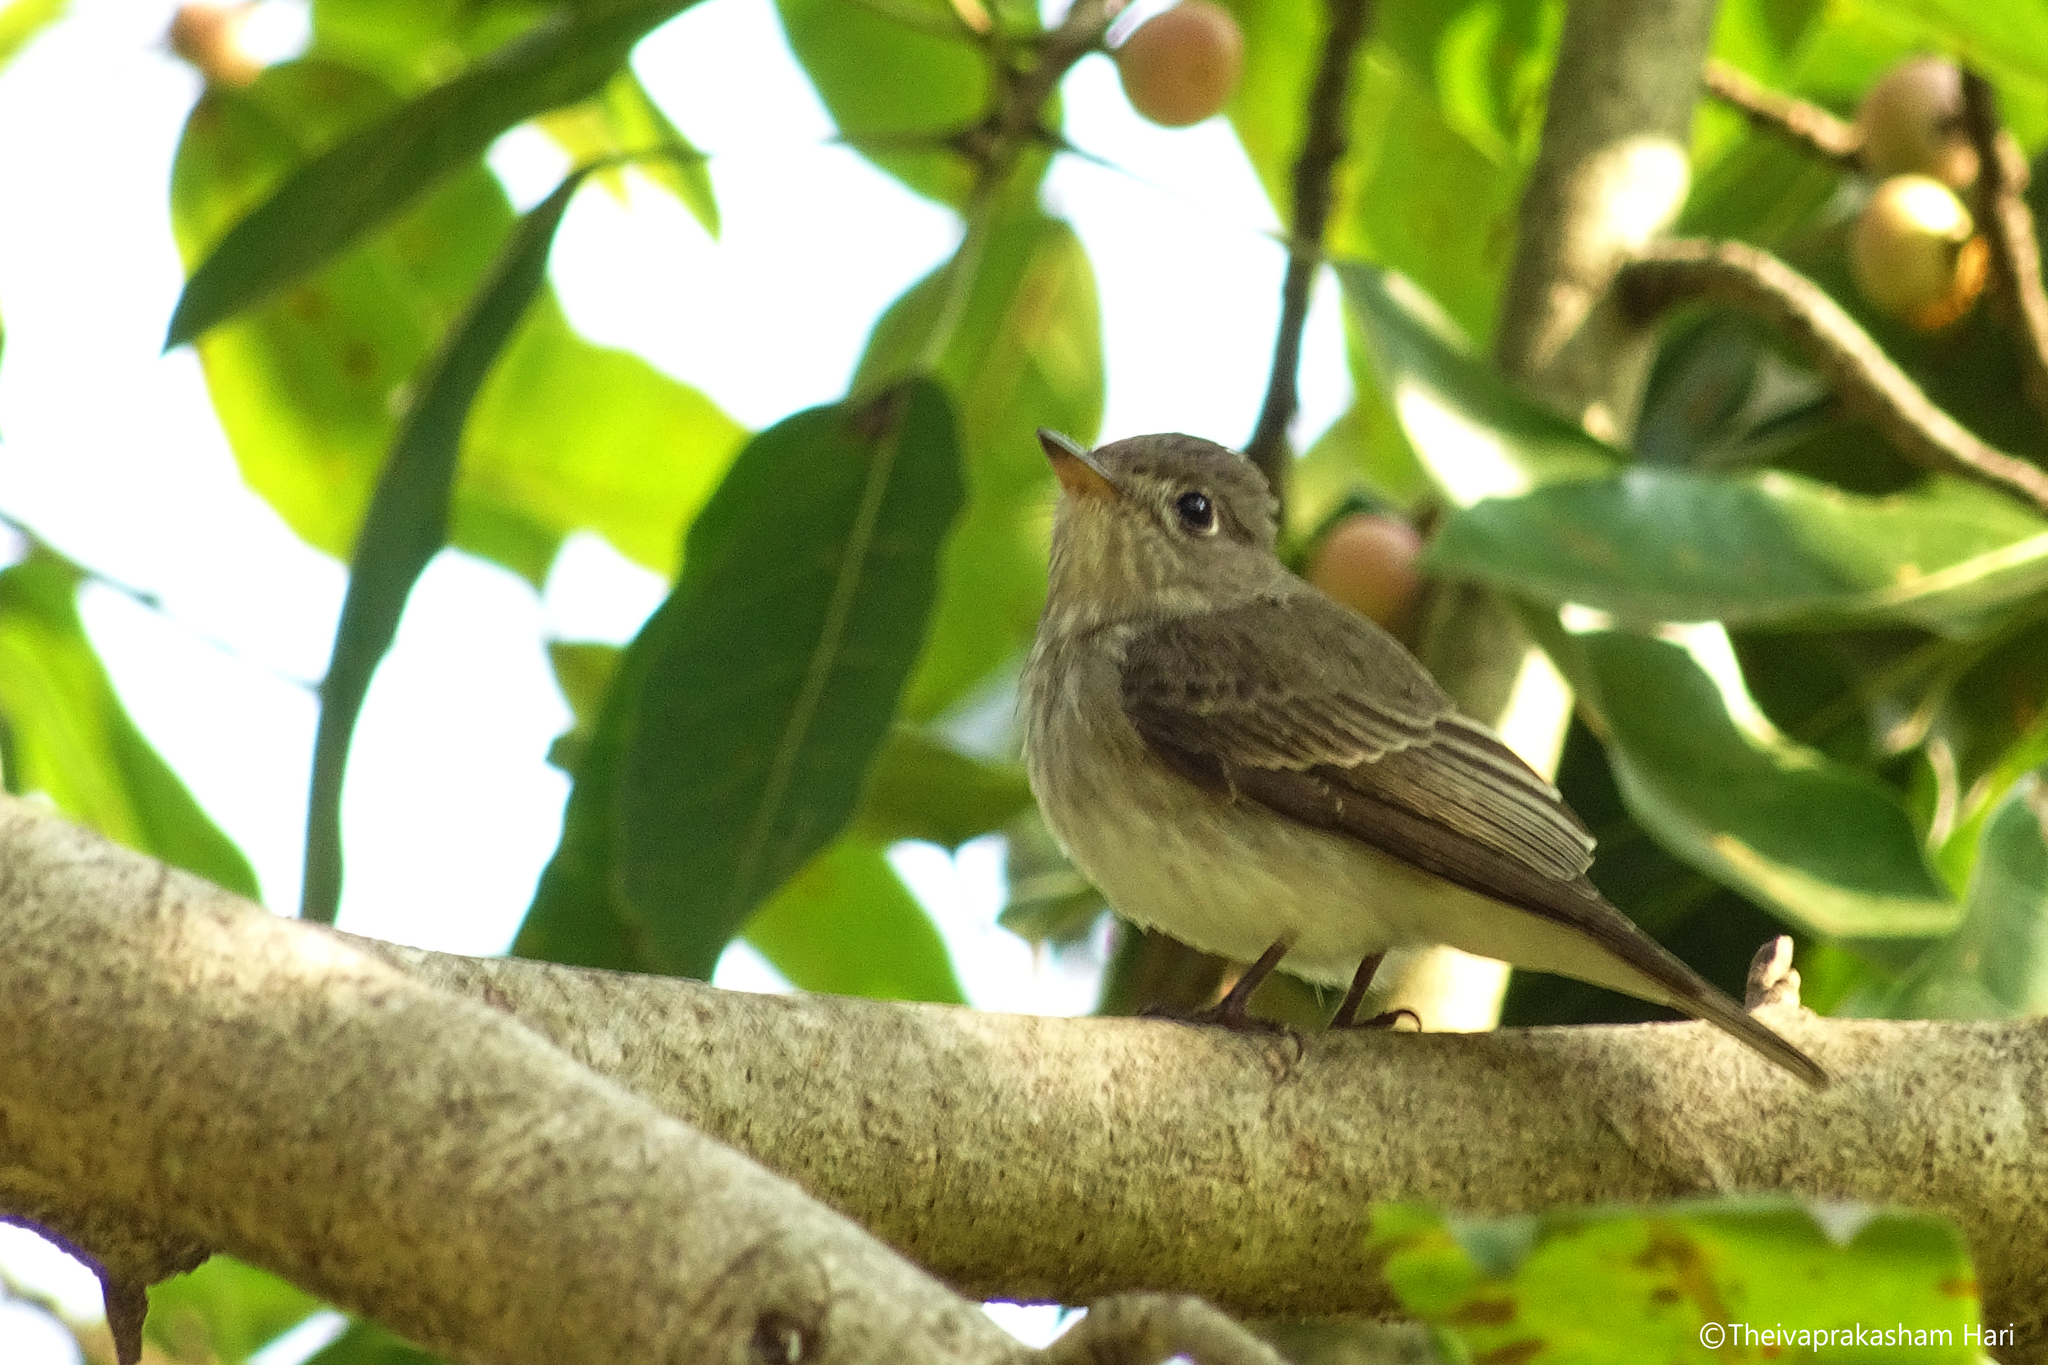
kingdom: Animalia
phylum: Chordata
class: Aves
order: Passeriformes
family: Muscicapidae
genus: Muscicapa
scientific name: Muscicapa latirostris
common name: Asian brown flycatcher
